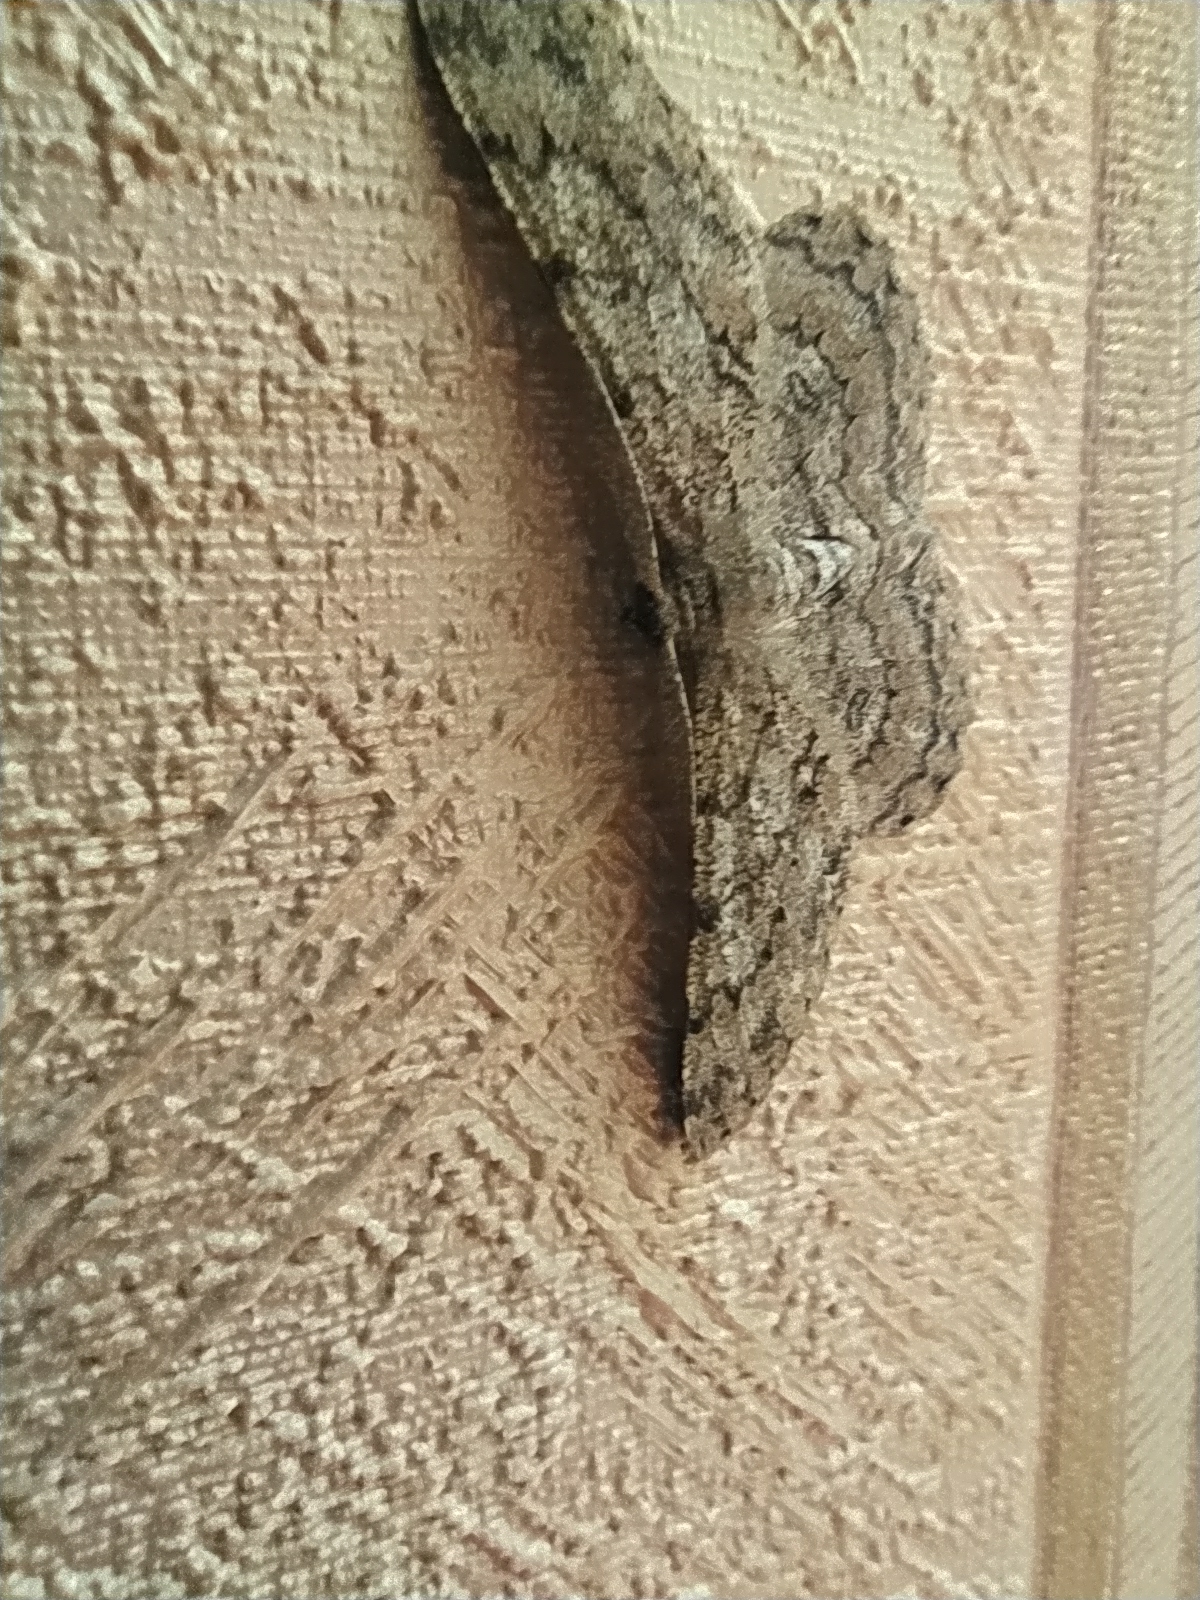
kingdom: Animalia
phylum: Arthropoda
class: Insecta
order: Lepidoptera
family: Geometridae
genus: Hypomecis
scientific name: Hypomecis punctinalis
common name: Pale oak beauty
